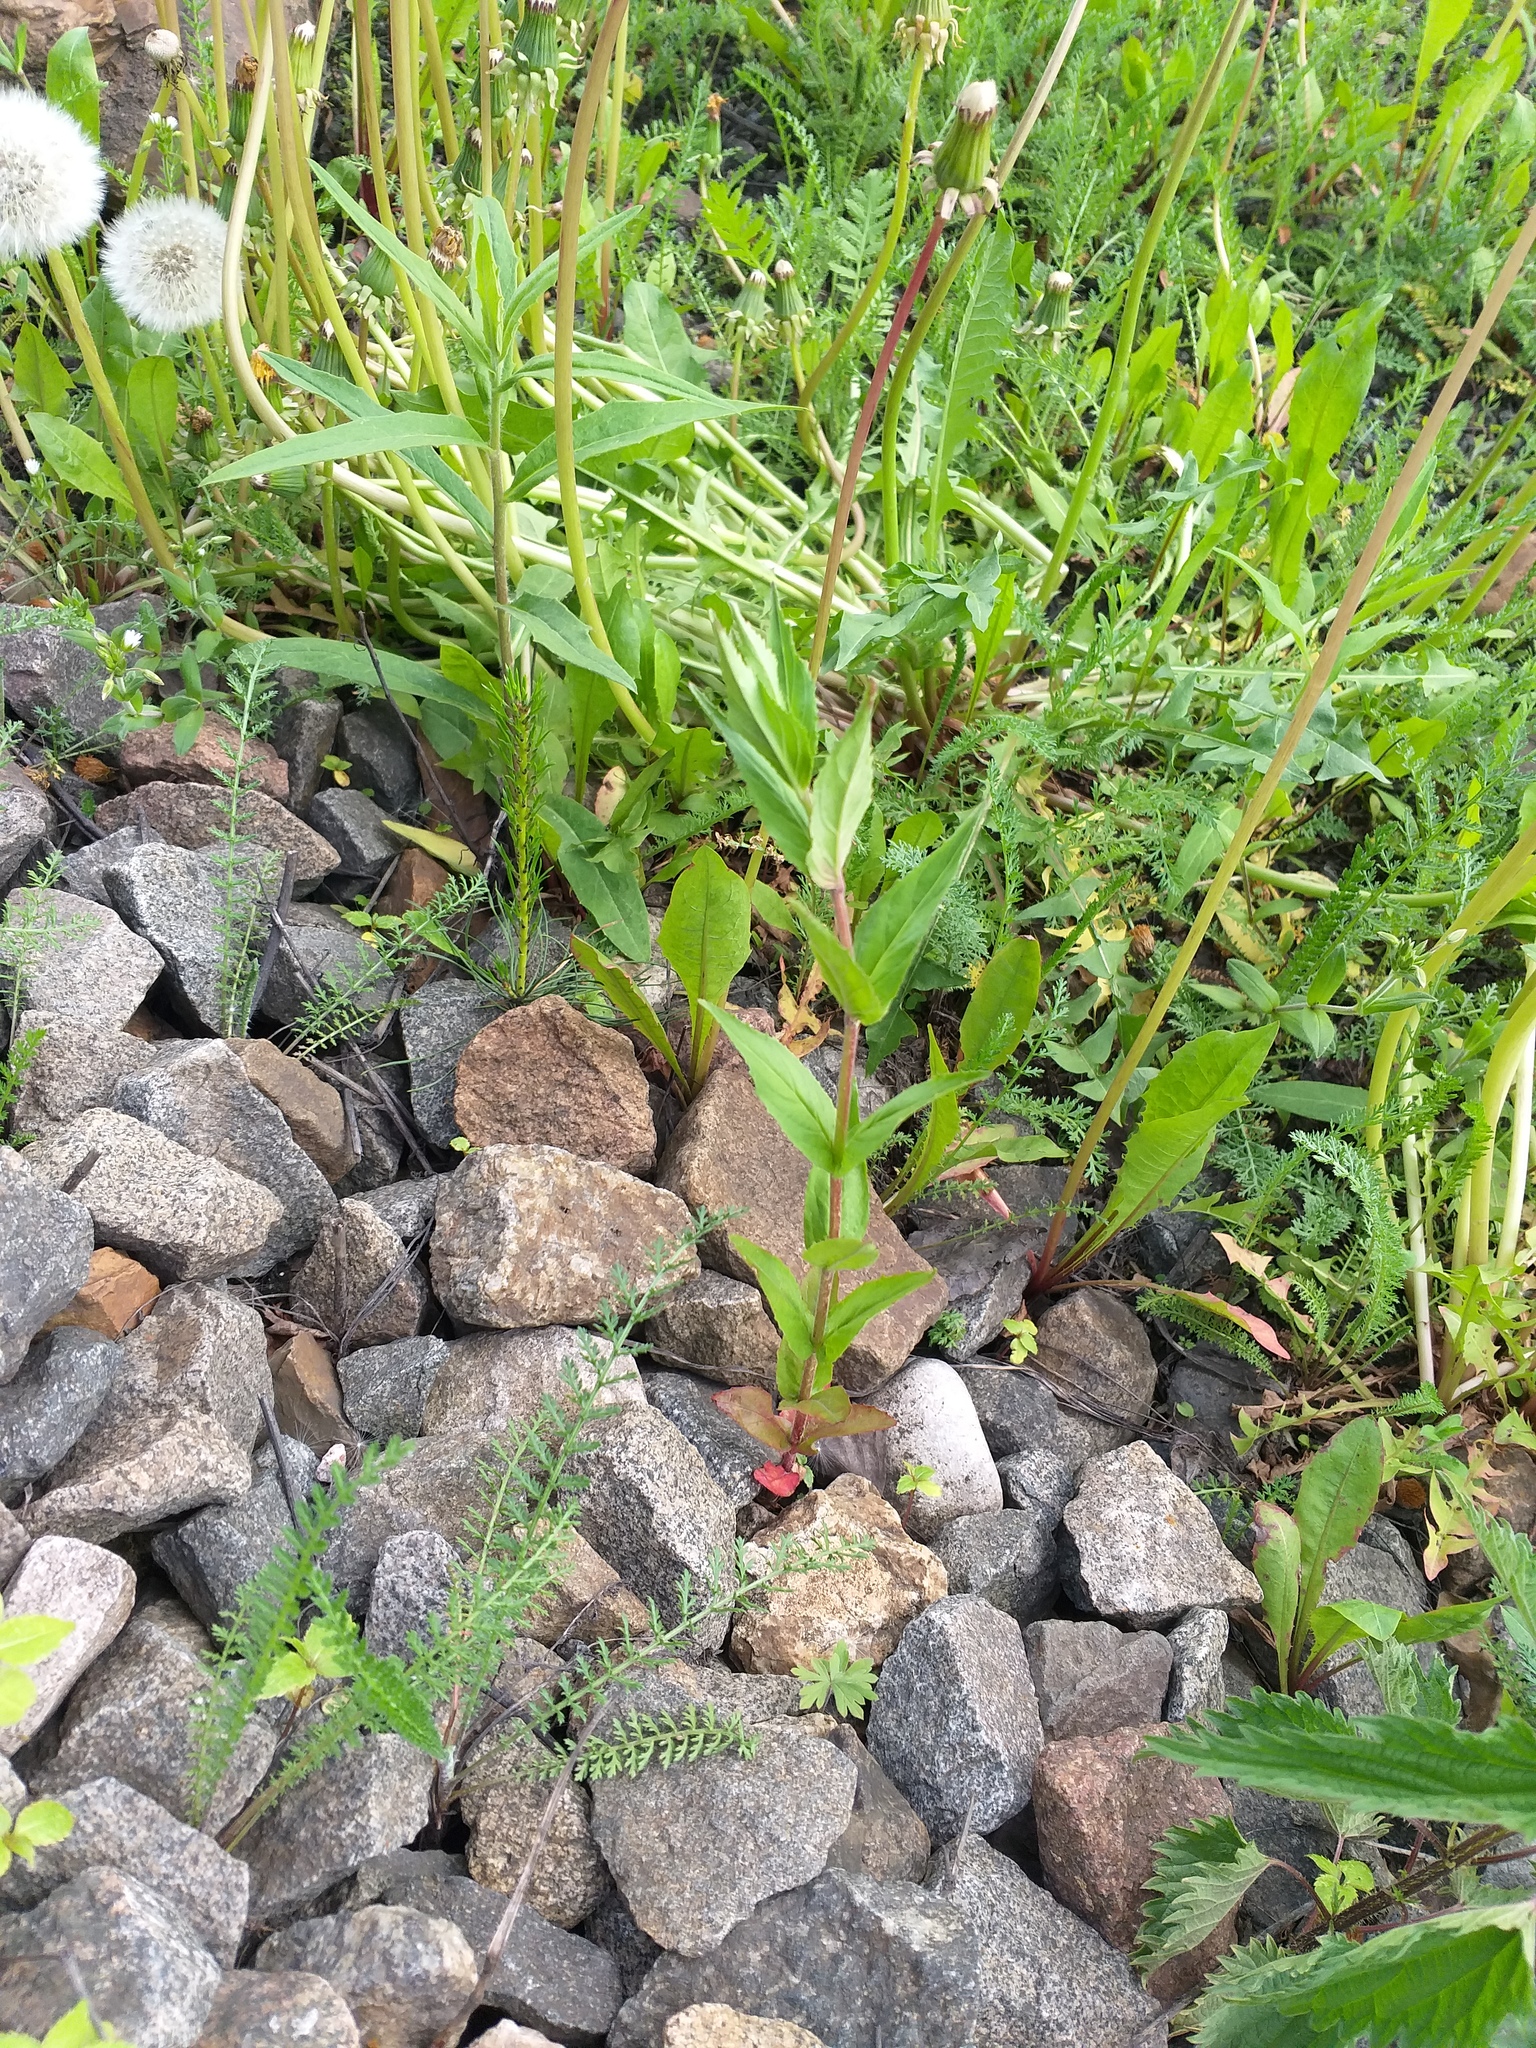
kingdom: Plantae
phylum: Tracheophyta
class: Magnoliopsida
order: Myrtales
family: Onagraceae
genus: Epilobium
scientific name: Epilobium montanum
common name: Broad-leaved willowherb
